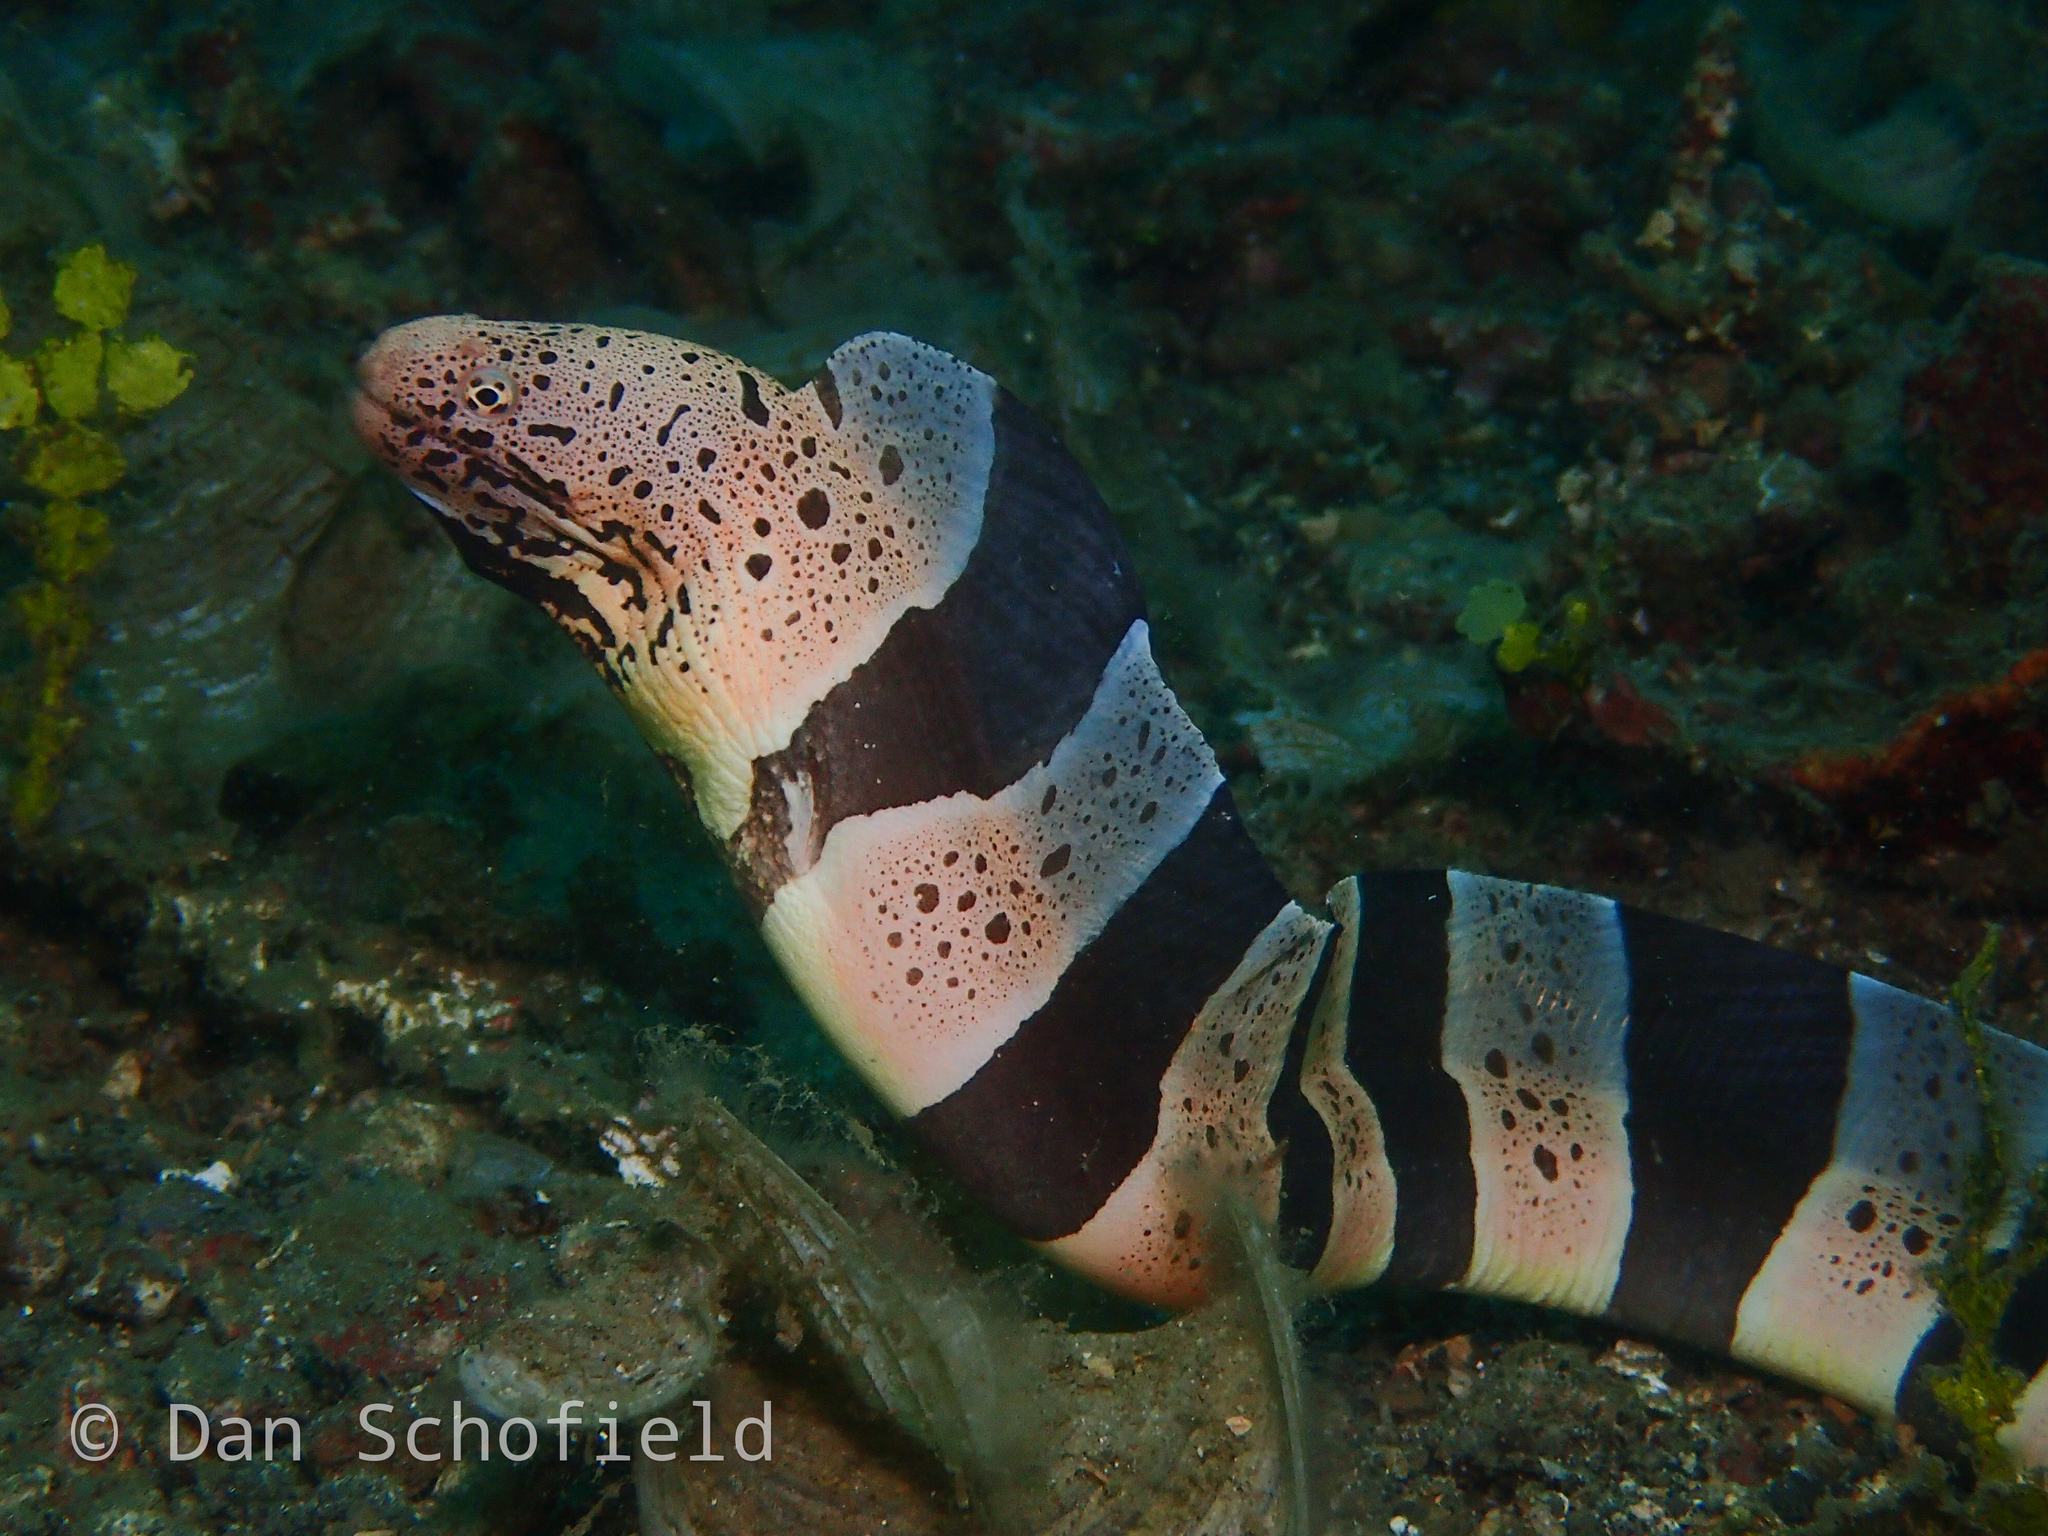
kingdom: Animalia
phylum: Chordata
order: Anguilliformes
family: Muraenidae
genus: Gymnothorax
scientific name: Gymnothorax chlamydatus
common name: Banded mud moray
